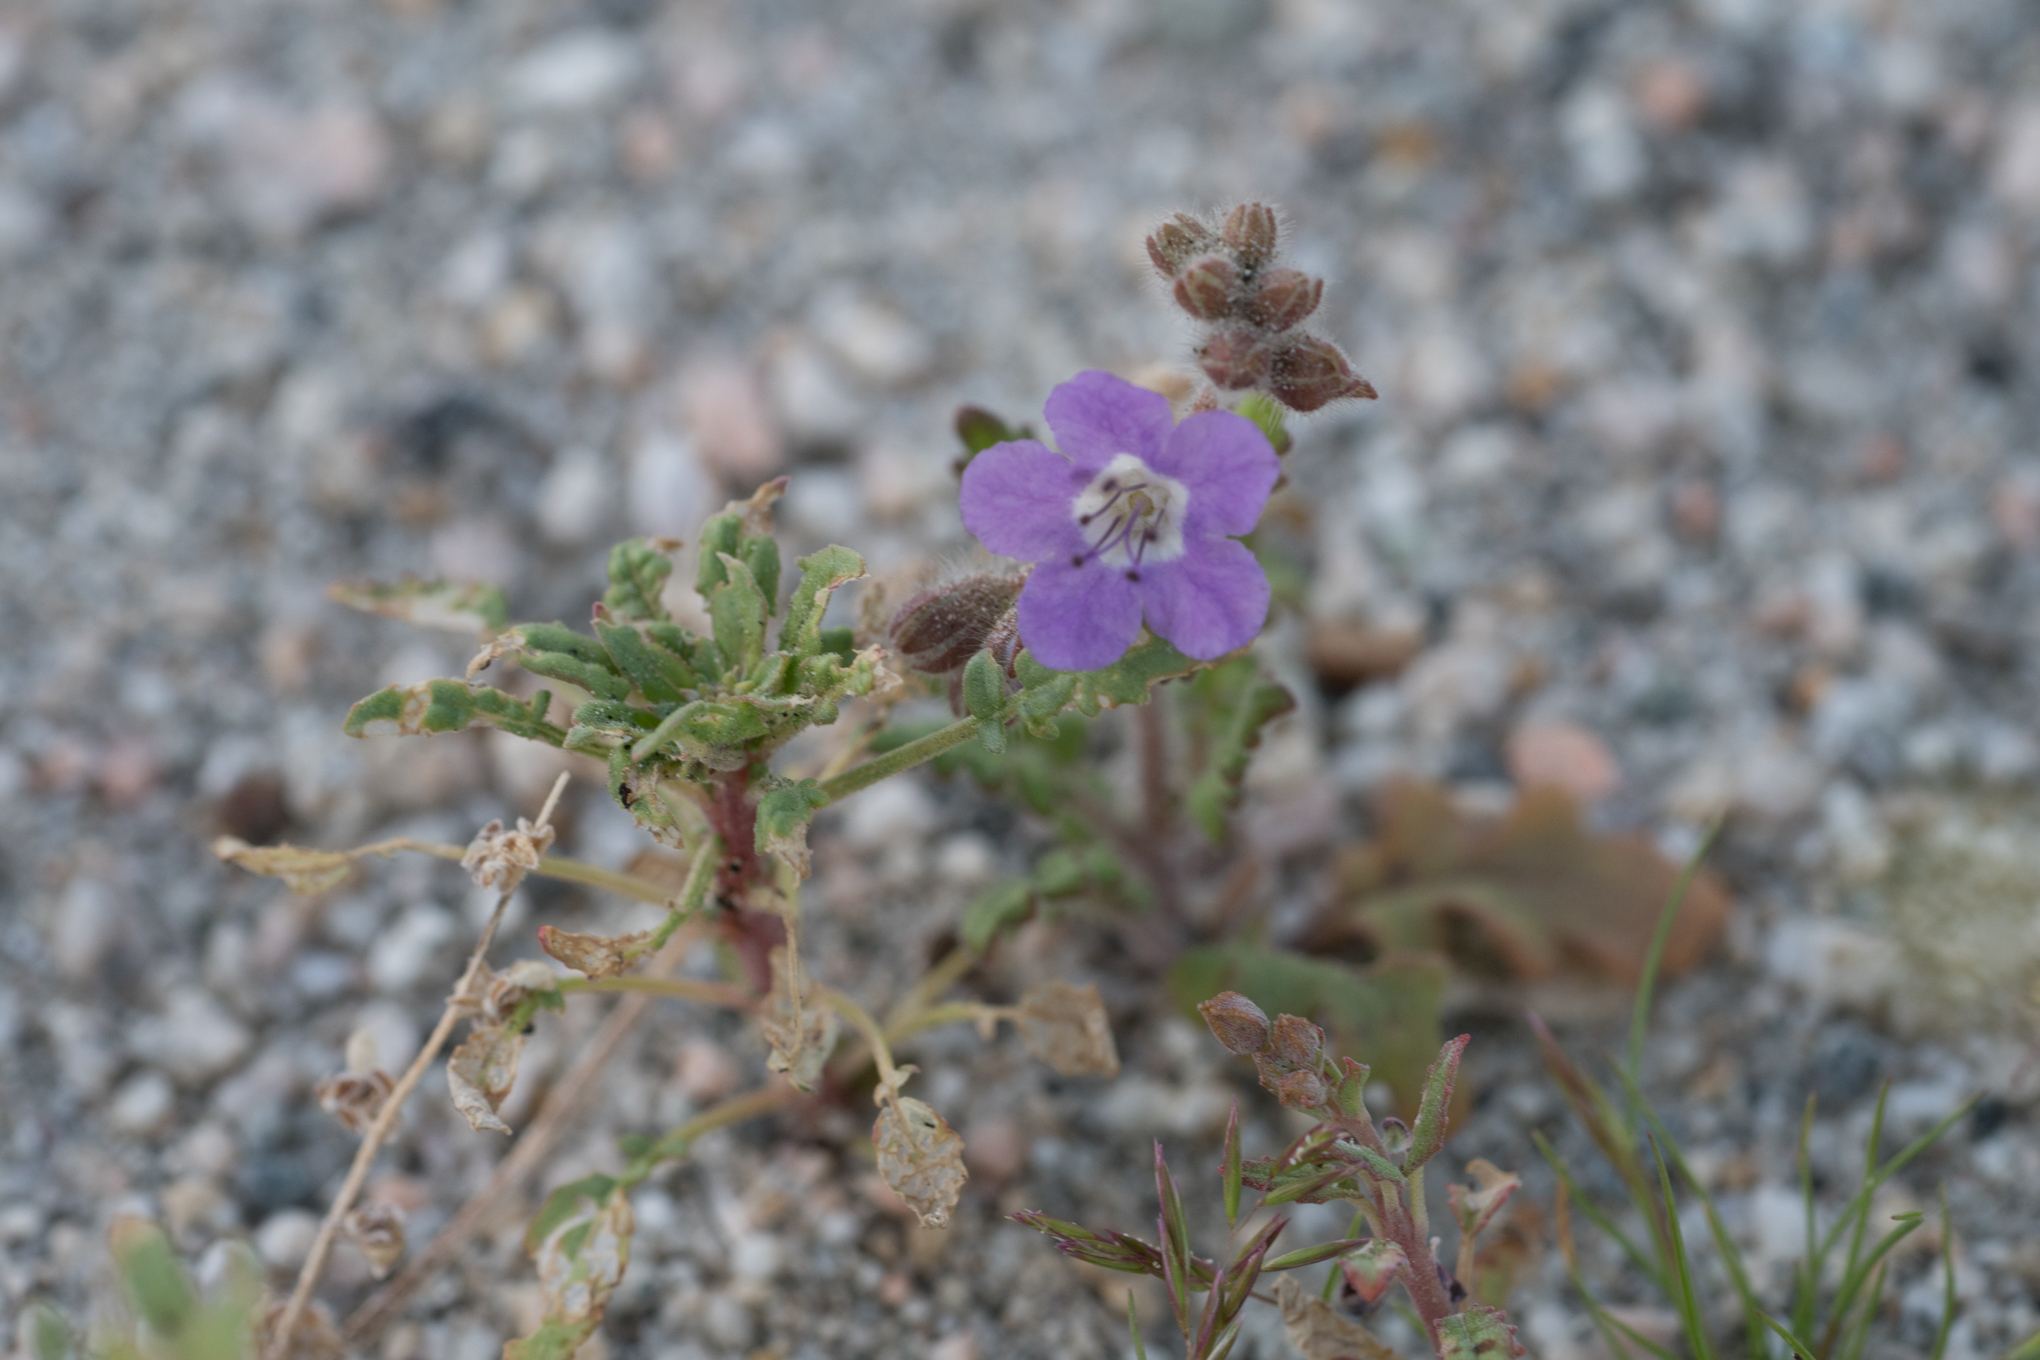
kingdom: Plantae
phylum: Tracheophyta
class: Magnoliopsida
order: Boraginales
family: Hydrophyllaceae
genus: Phacelia
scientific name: Phacelia crenulata
